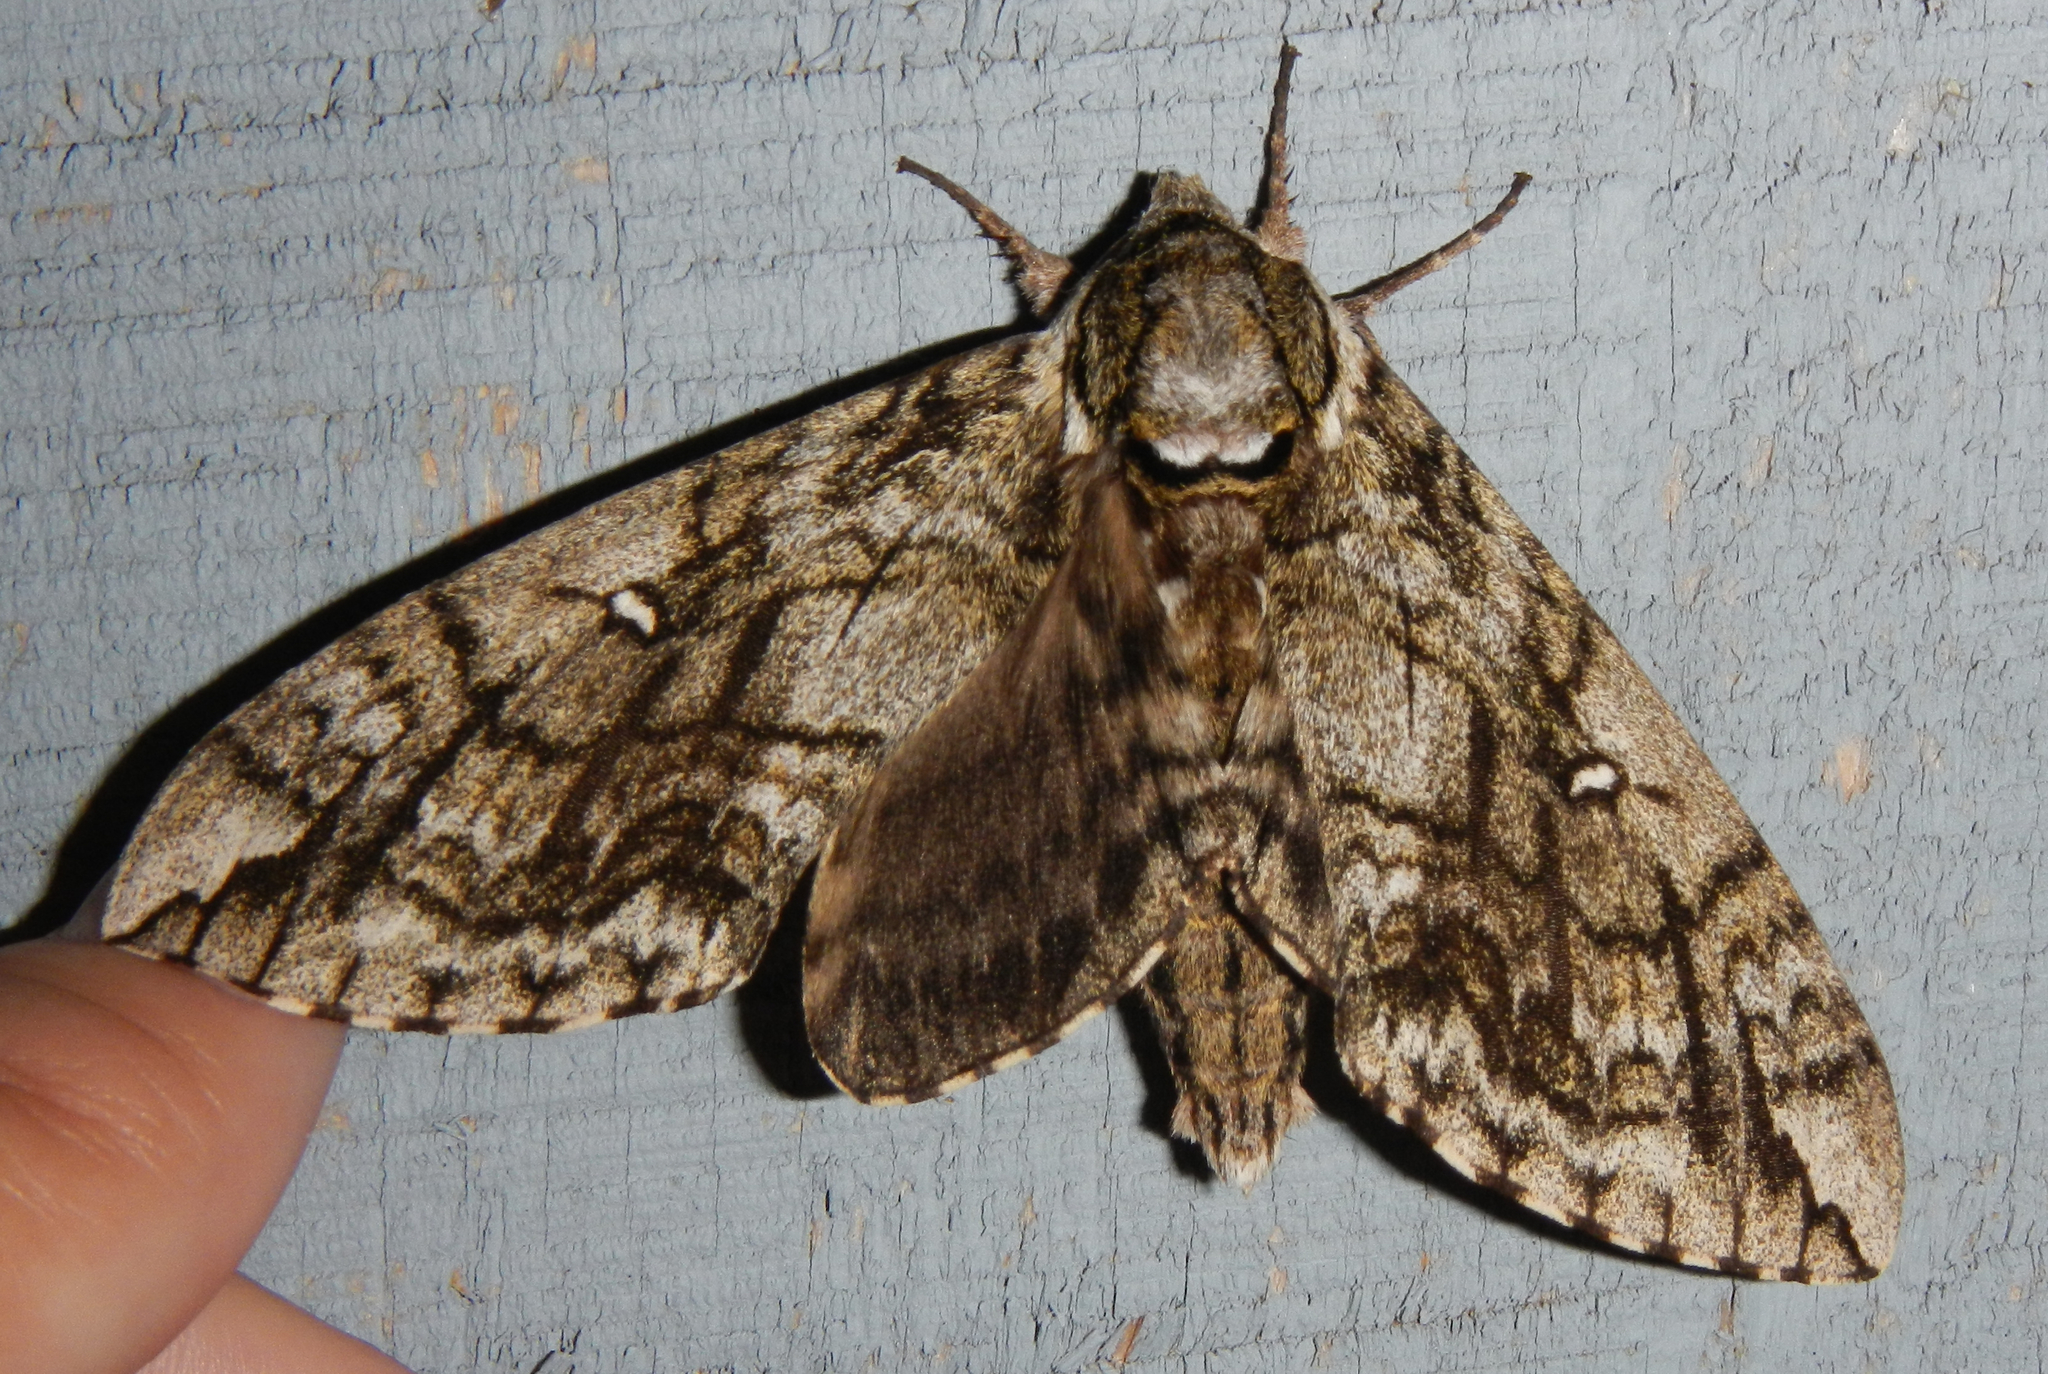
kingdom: Animalia
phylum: Arthropoda
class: Insecta
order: Lepidoptera
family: Sphingidae
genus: Ceratomia
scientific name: Ceratomia undulosa
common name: Waved sphinx
